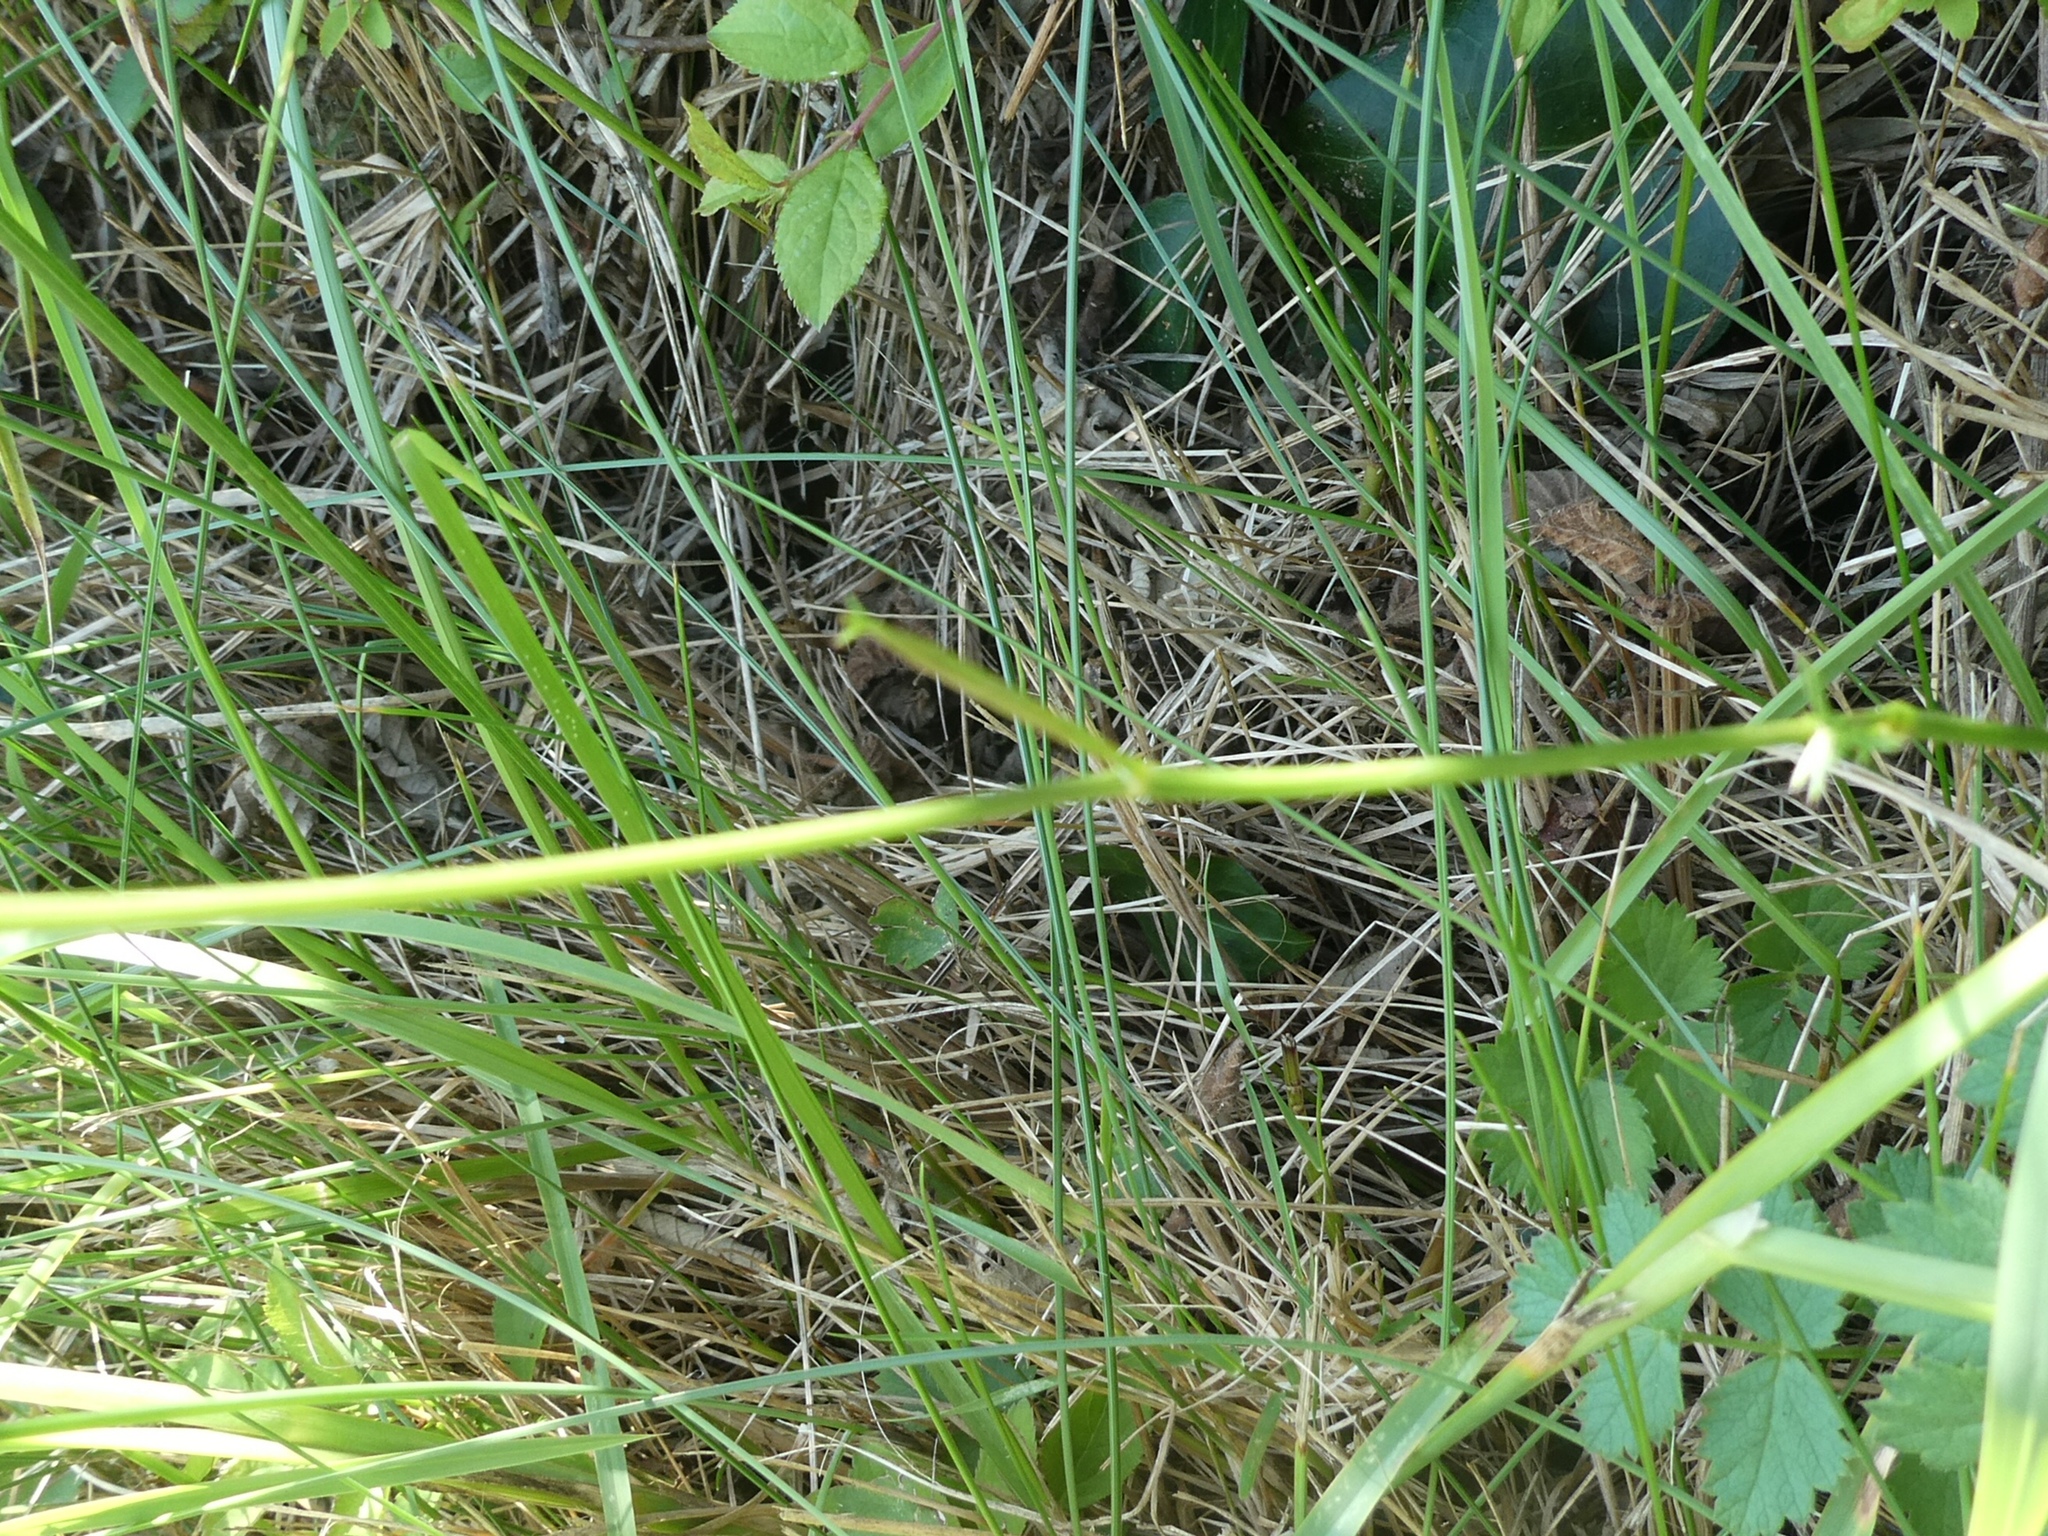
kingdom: Plantae
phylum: Tracheophyta
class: Magnoliopsida
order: Apiales
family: Apiaceae
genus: Pimpinella
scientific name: Pimpinella saxifraga
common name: Burnet-saxifrage
